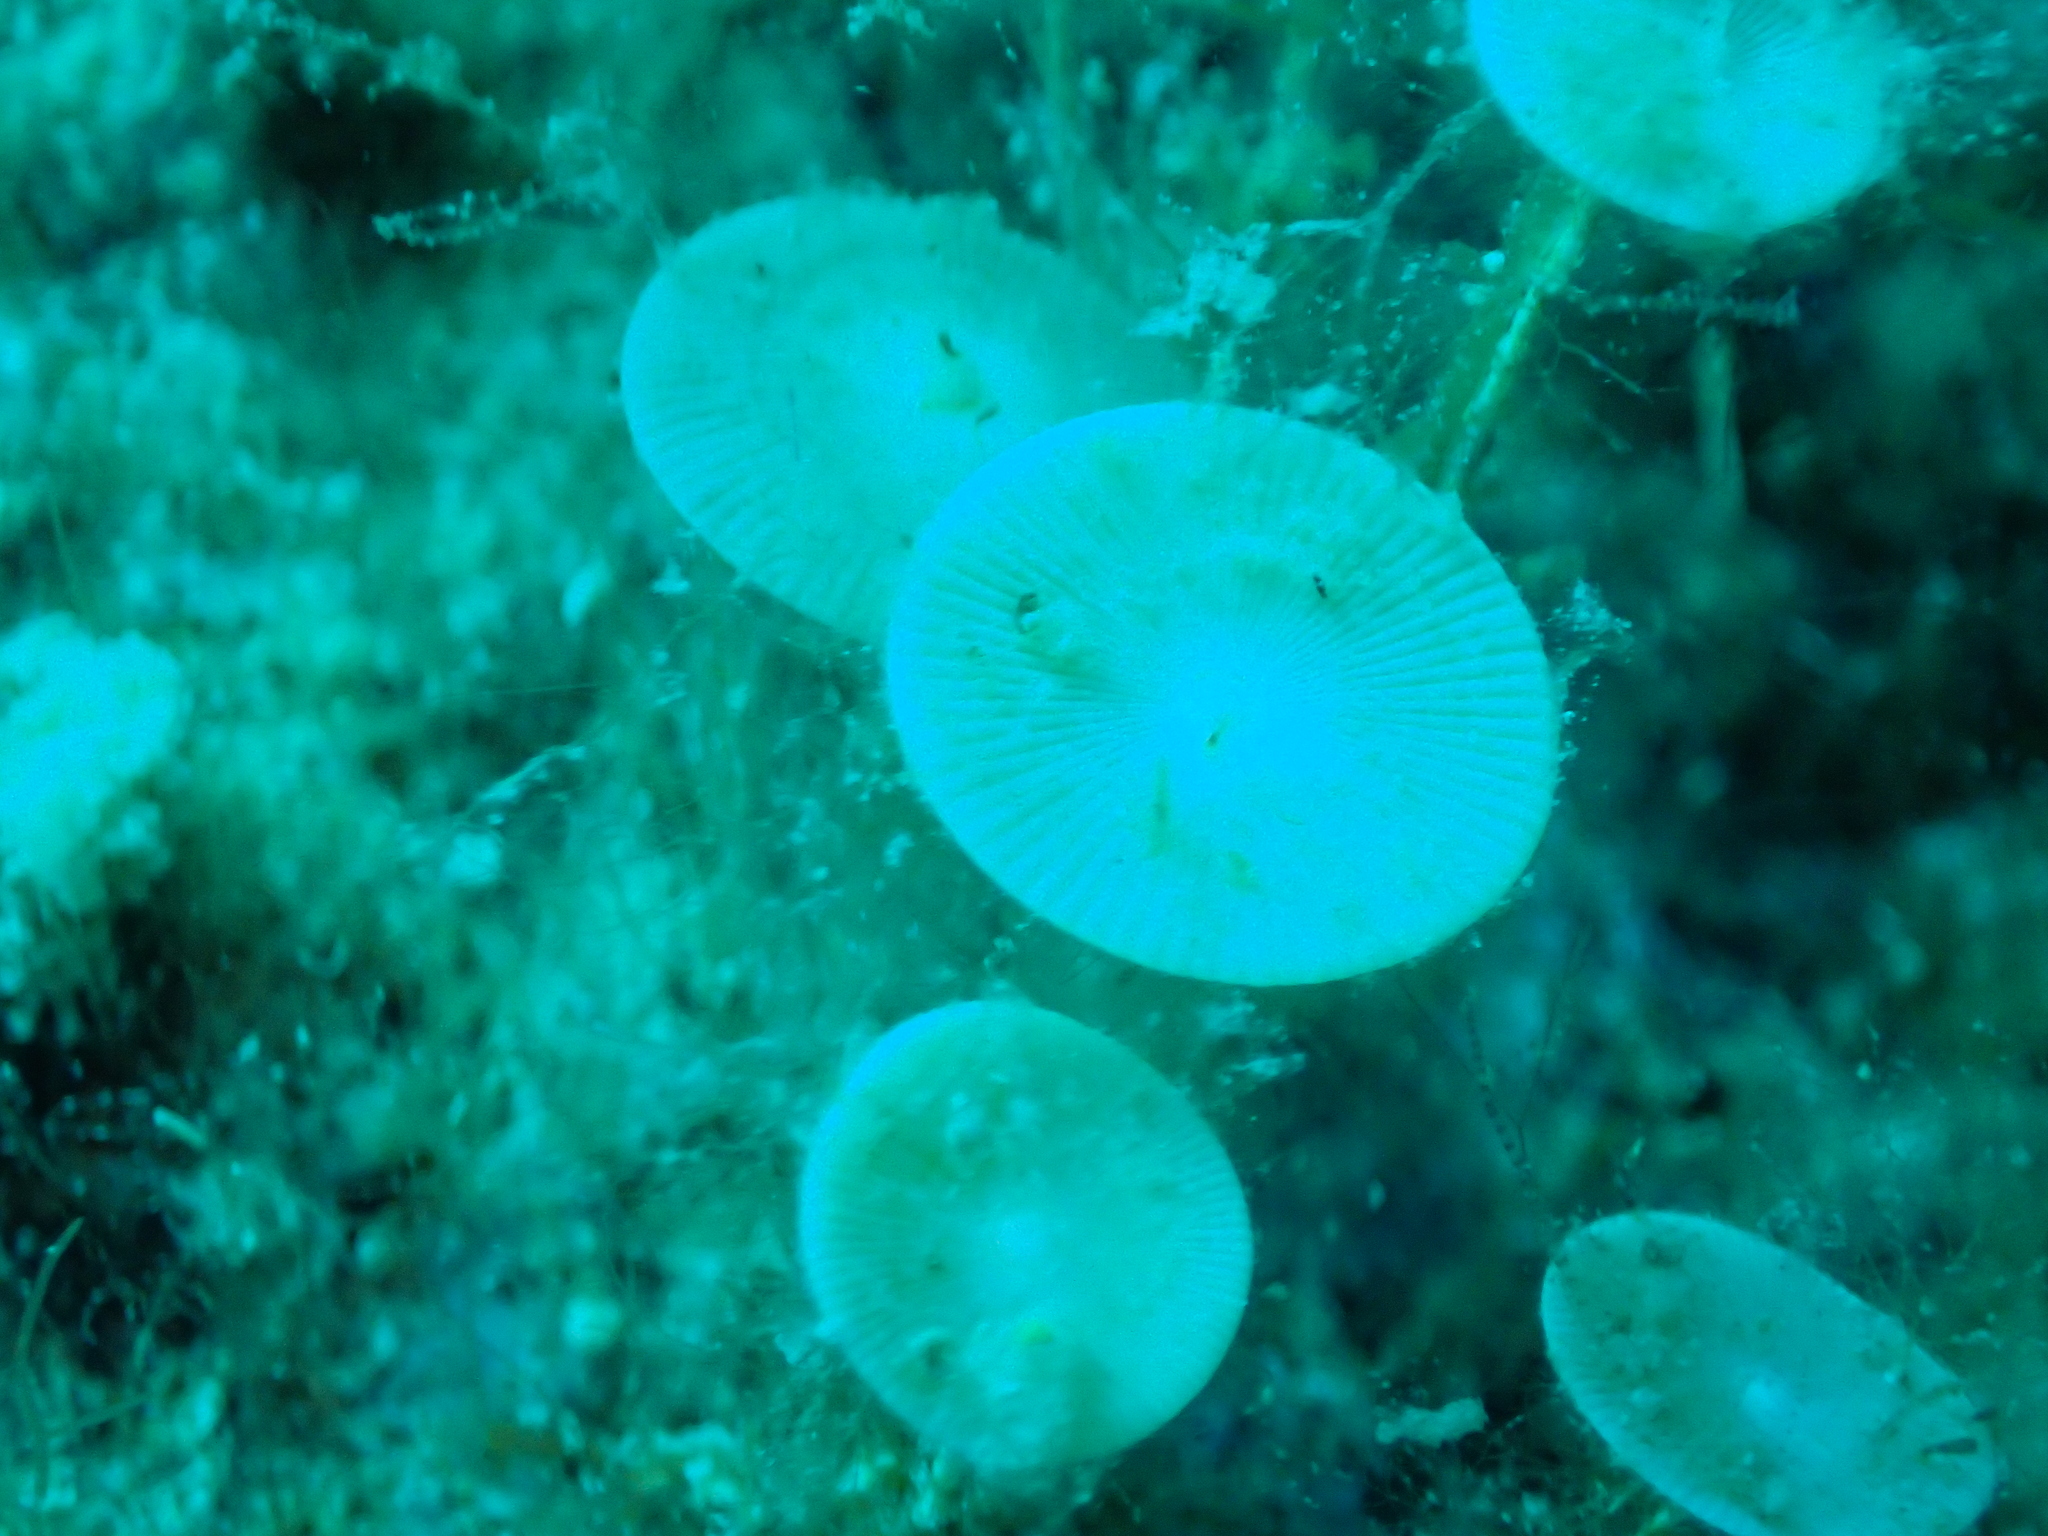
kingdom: Plantae
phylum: Chlorophyta
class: Ulvophyceae
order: Dasycladales
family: Polyphysaceae
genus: Acetabularia
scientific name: Acetabularia acetabulum
